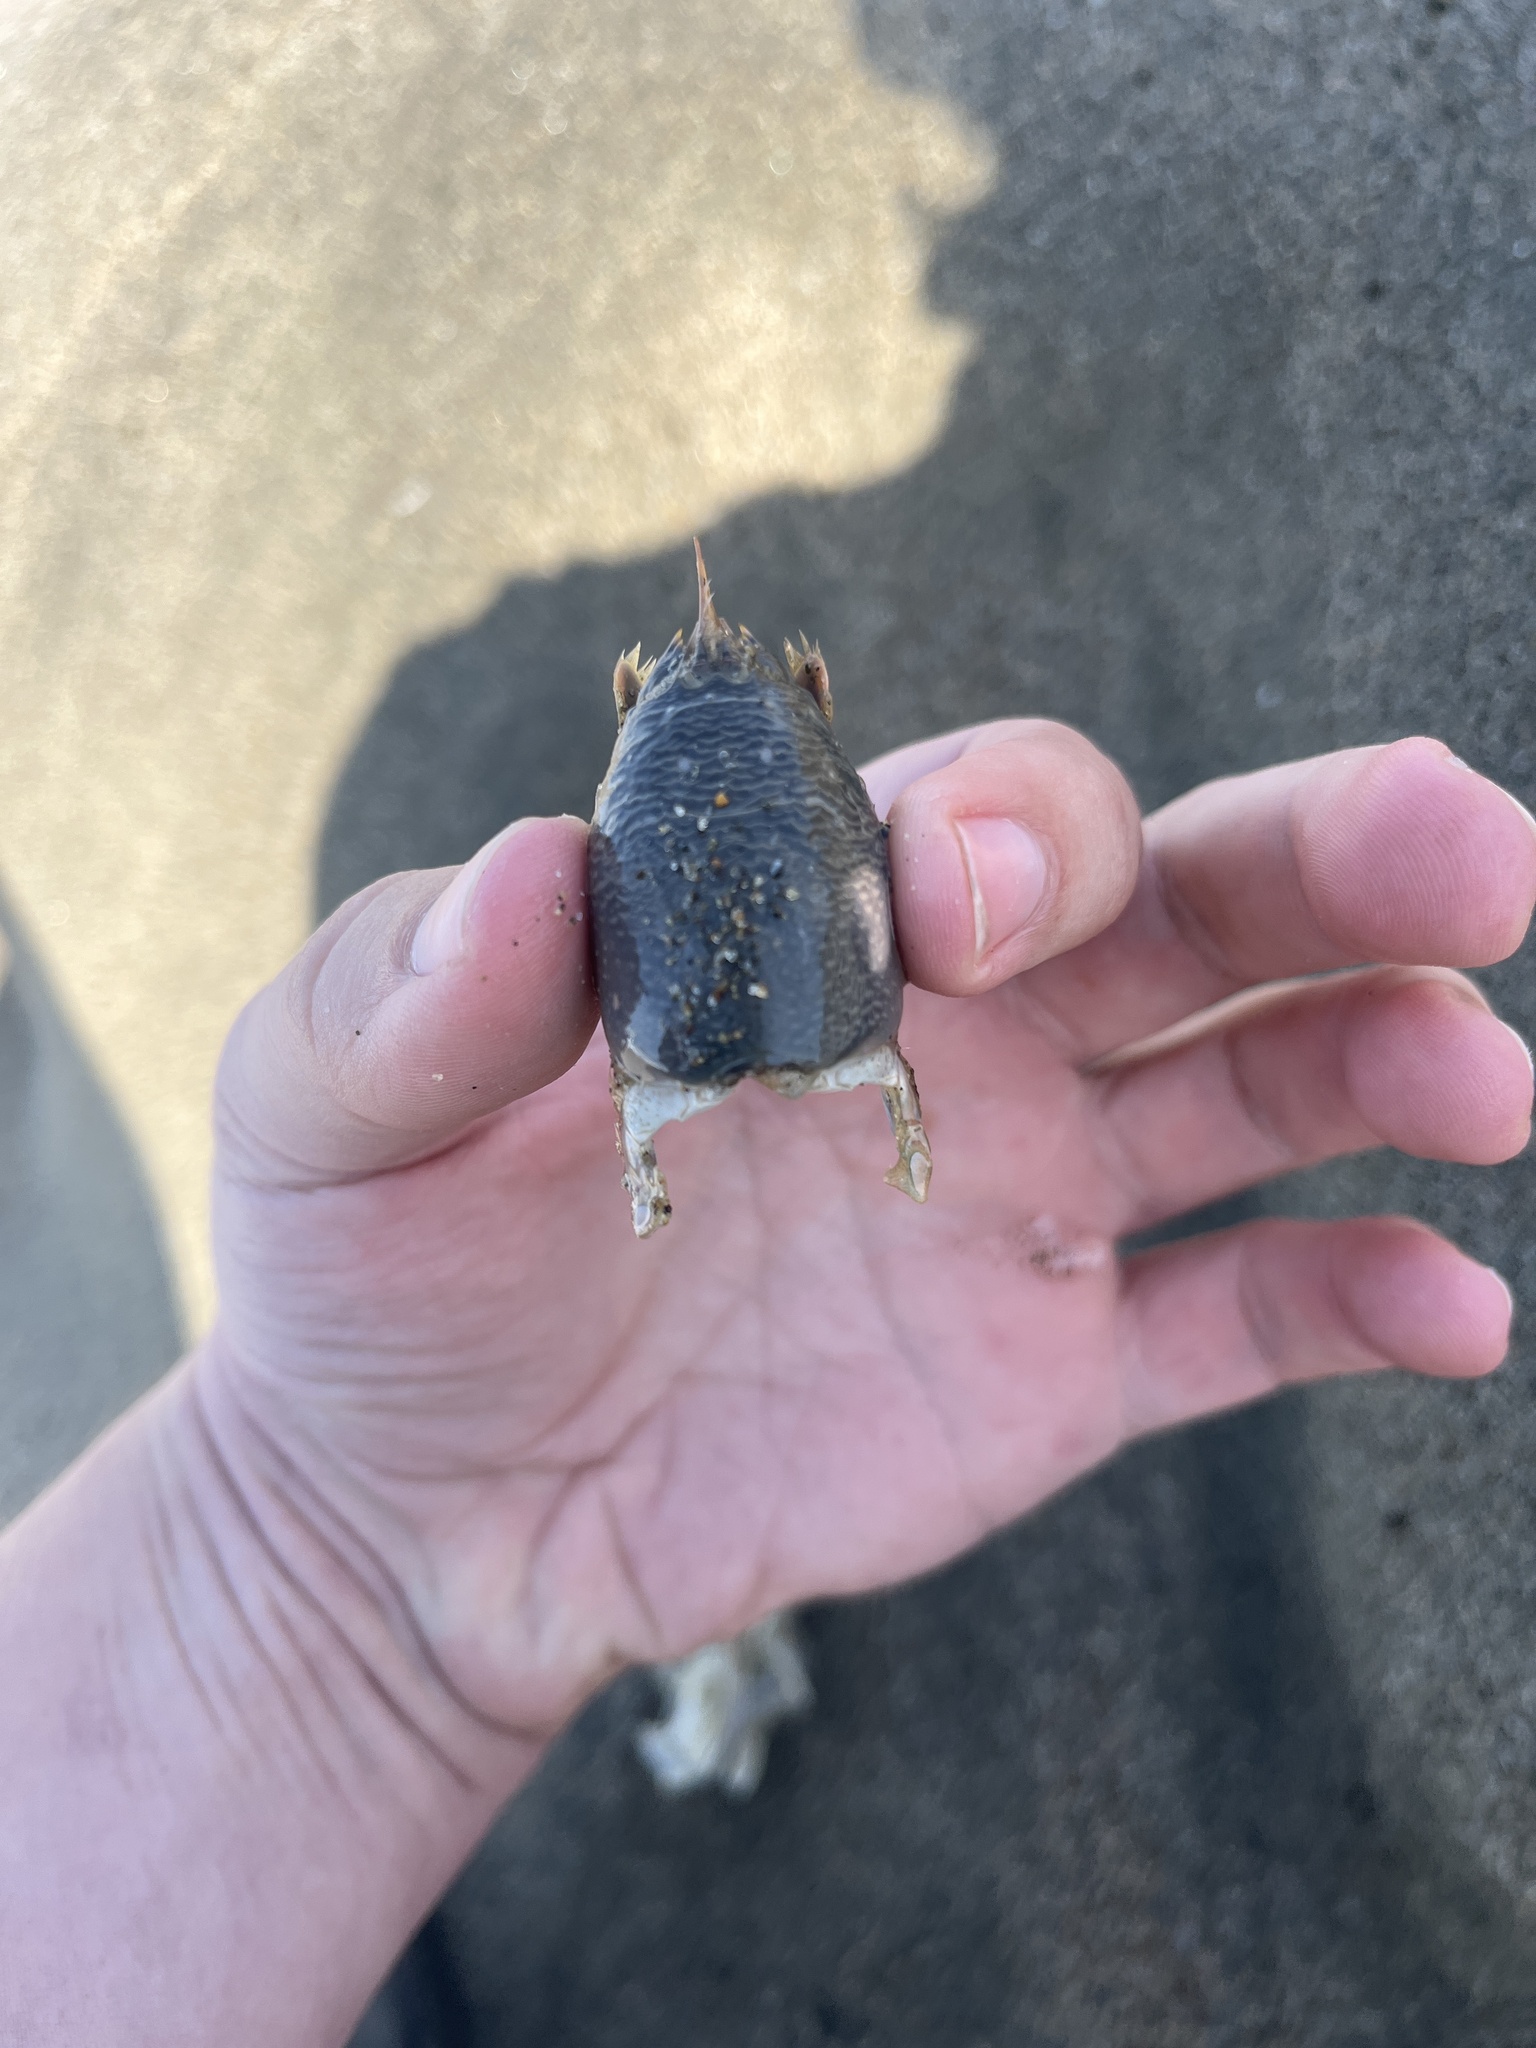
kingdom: Animalia
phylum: Arthropoda
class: Malacostraca
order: Decapoda
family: Hippidae
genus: Emerita
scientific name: Emerita analoga
